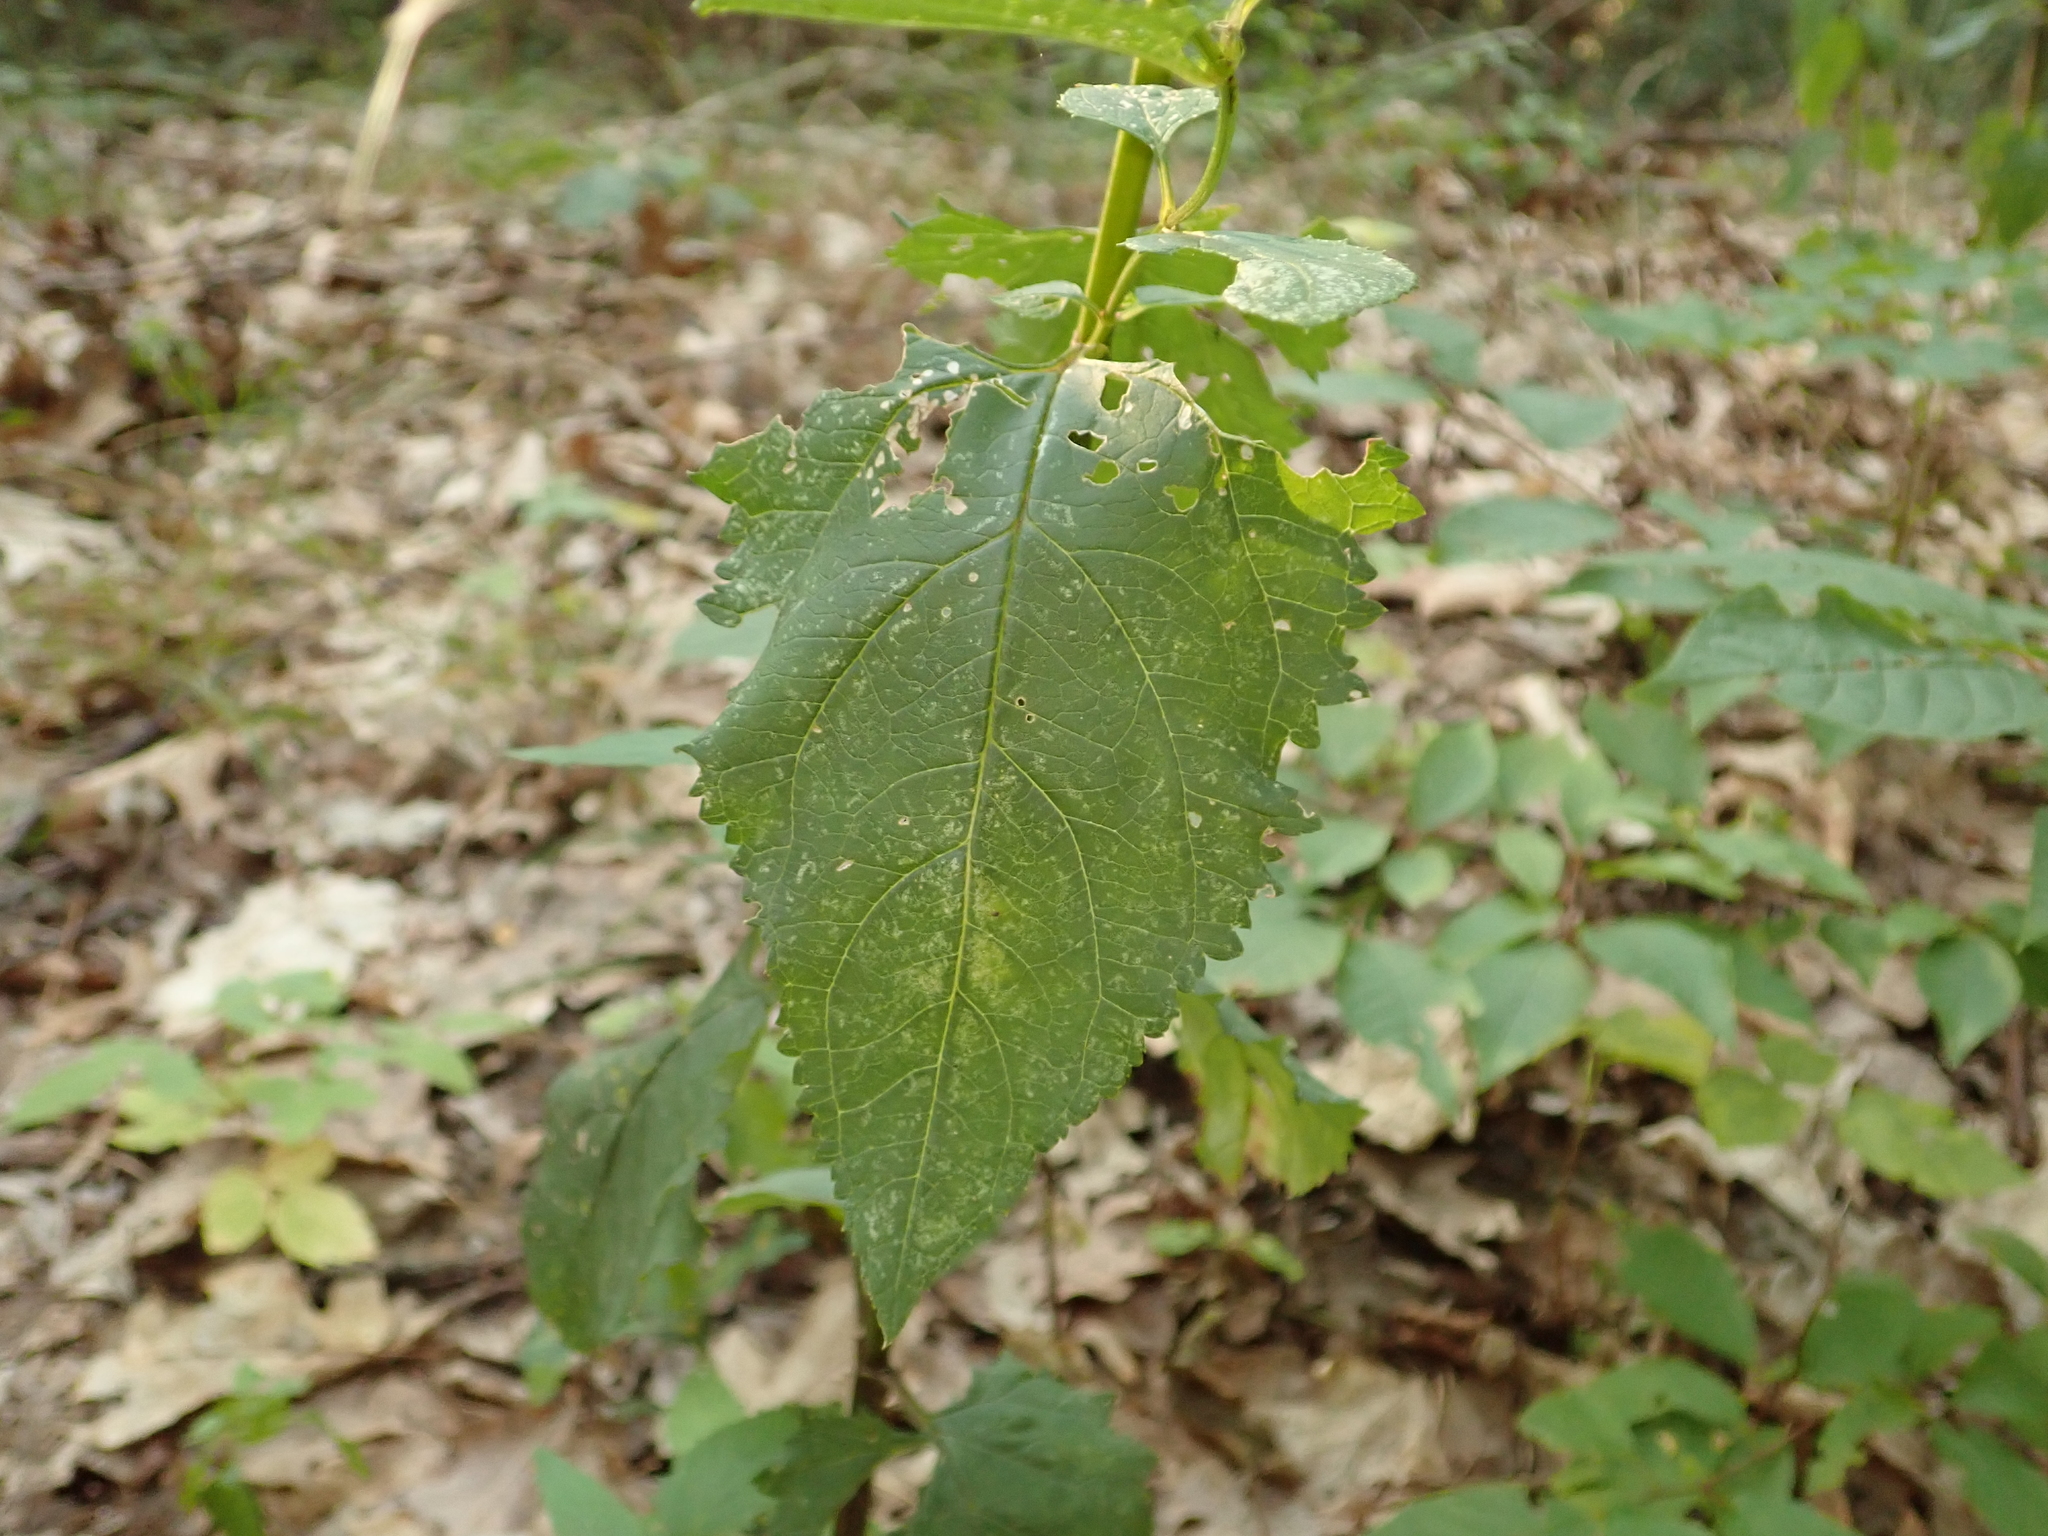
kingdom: Plantae
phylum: Tracheophyta
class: Magnoliopsida
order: Lamiales
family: Scrophulariaceae
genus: Scrophularia
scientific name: Scrophularia nodosa
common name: Common figwort
